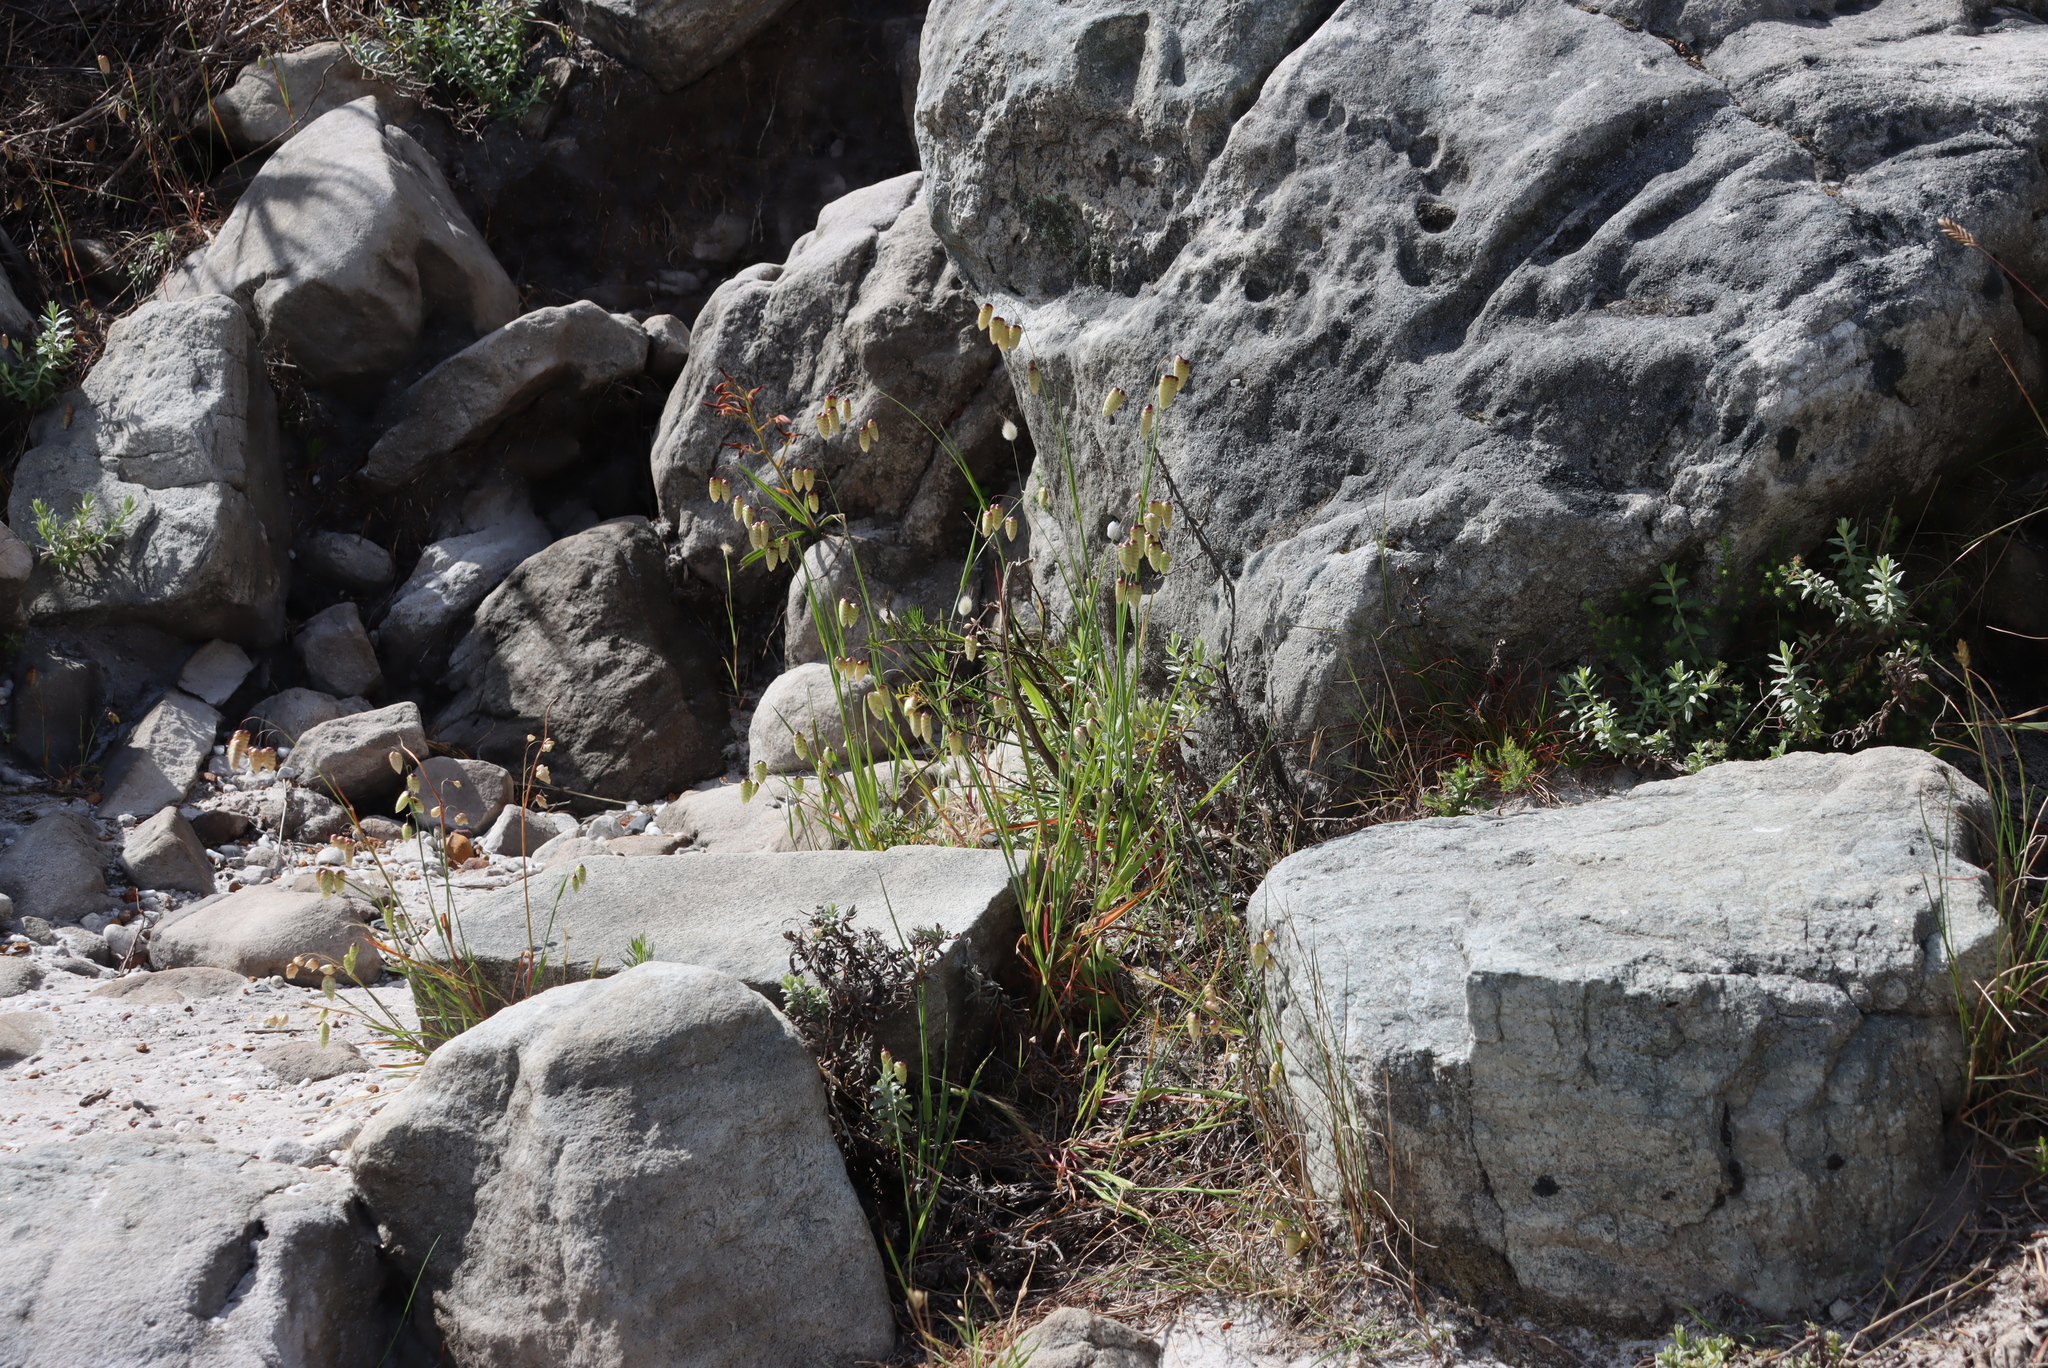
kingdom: Plantae
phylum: Tracheophyta
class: Liliopsida
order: Poales
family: Poaceae
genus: Briza
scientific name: Briza maxima
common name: Big quakinggrass
